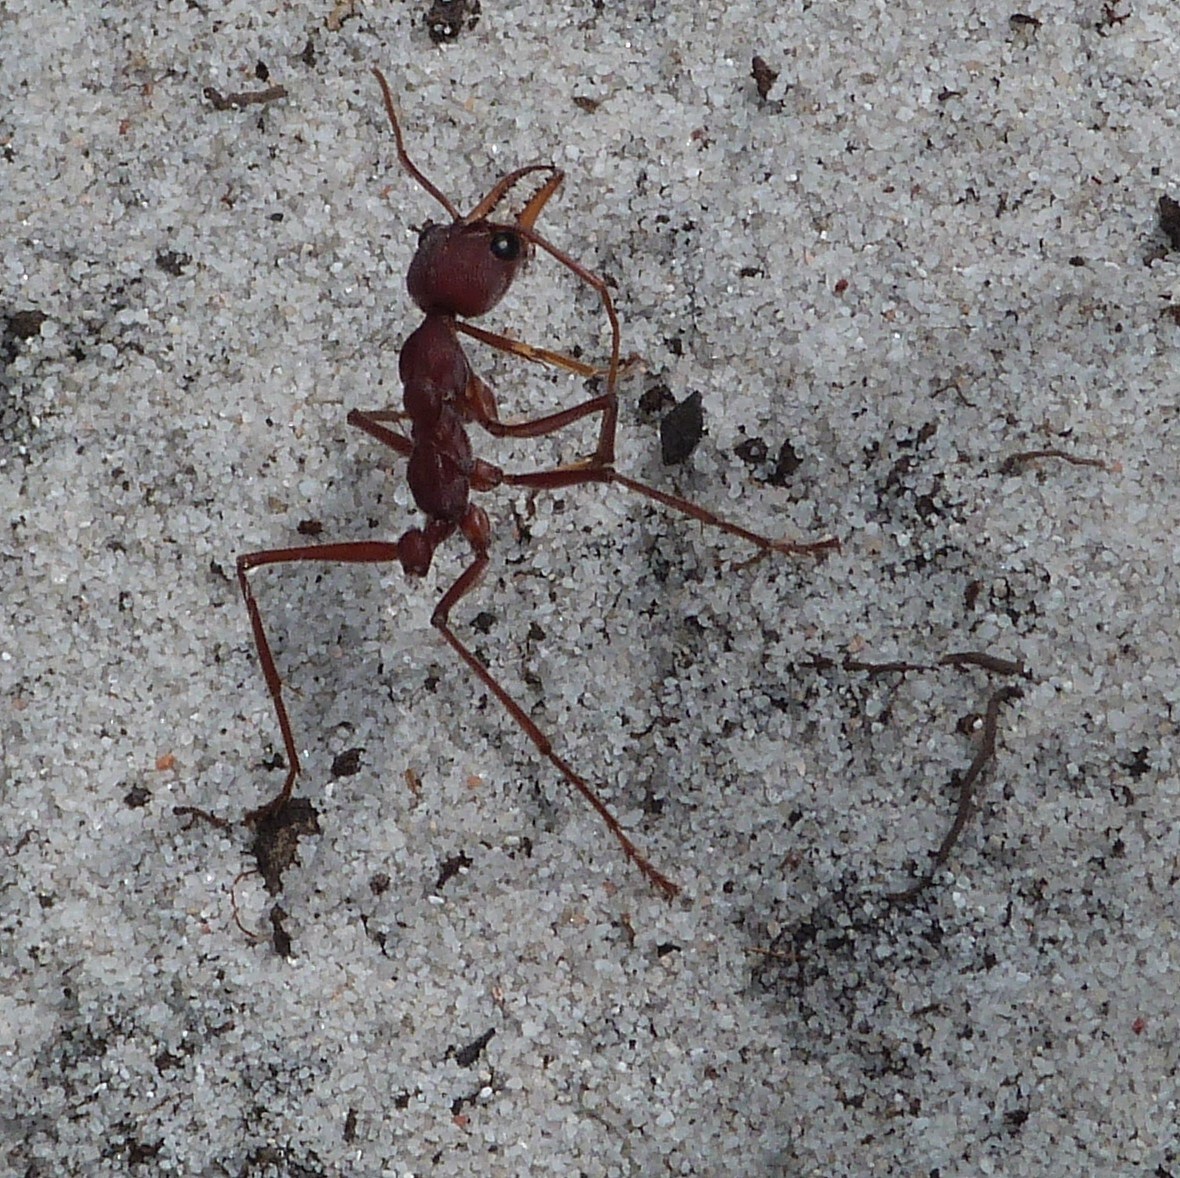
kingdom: Animalia
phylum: Arthropoda
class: Insecta
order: Hymenoptera
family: Formicidae
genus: Myrmecia
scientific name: Myrmecia gulosa
